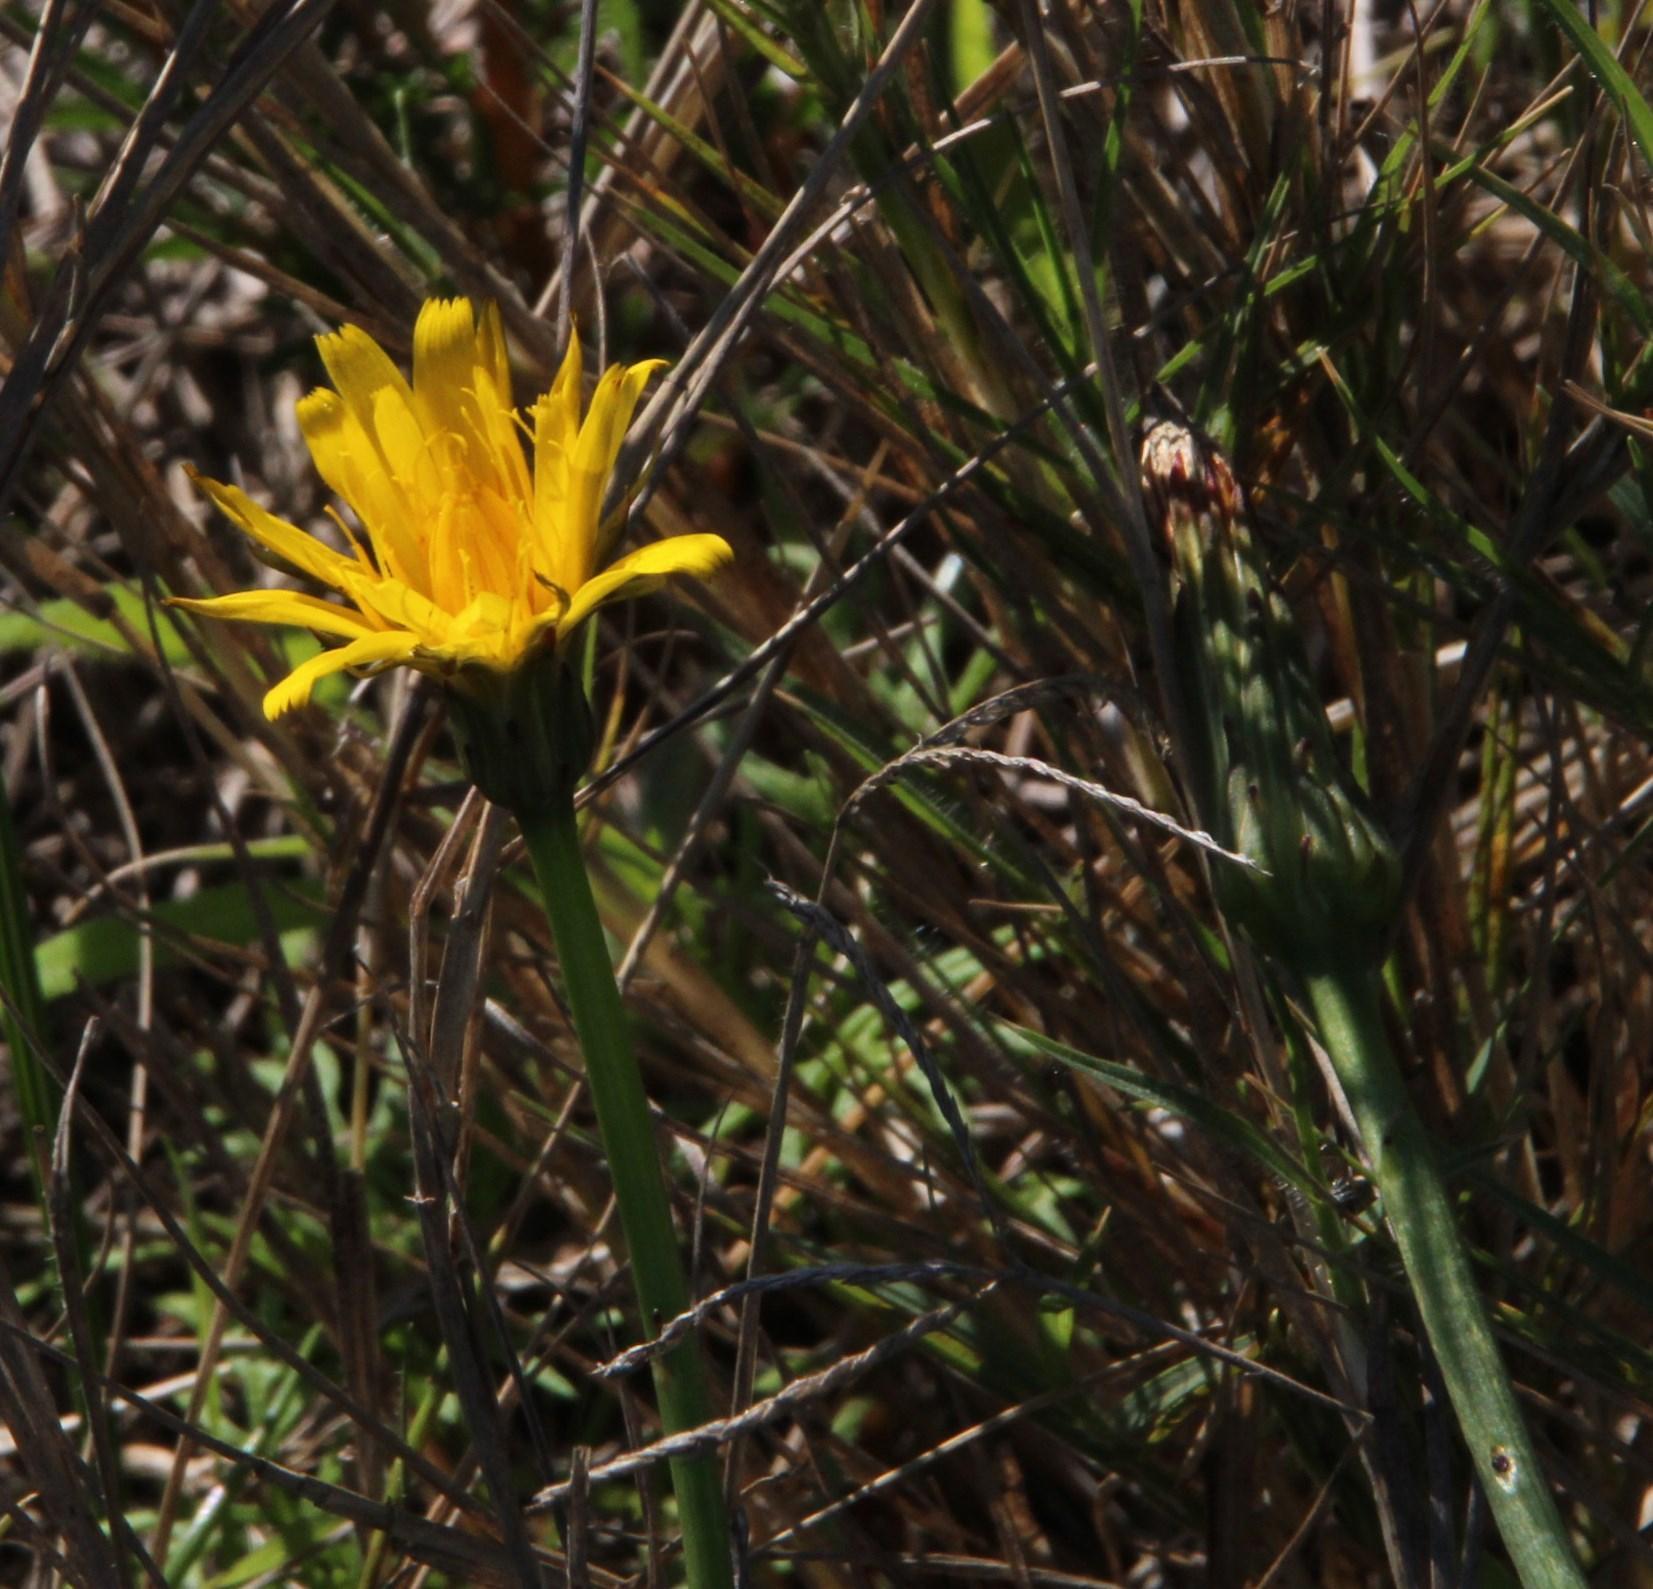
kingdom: Plantae
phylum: Tracheophyta
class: Magnoliopsida
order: Asterales
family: Asteraceae
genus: Hypochaeris
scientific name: Hypochaeris radicata
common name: Flatweed
